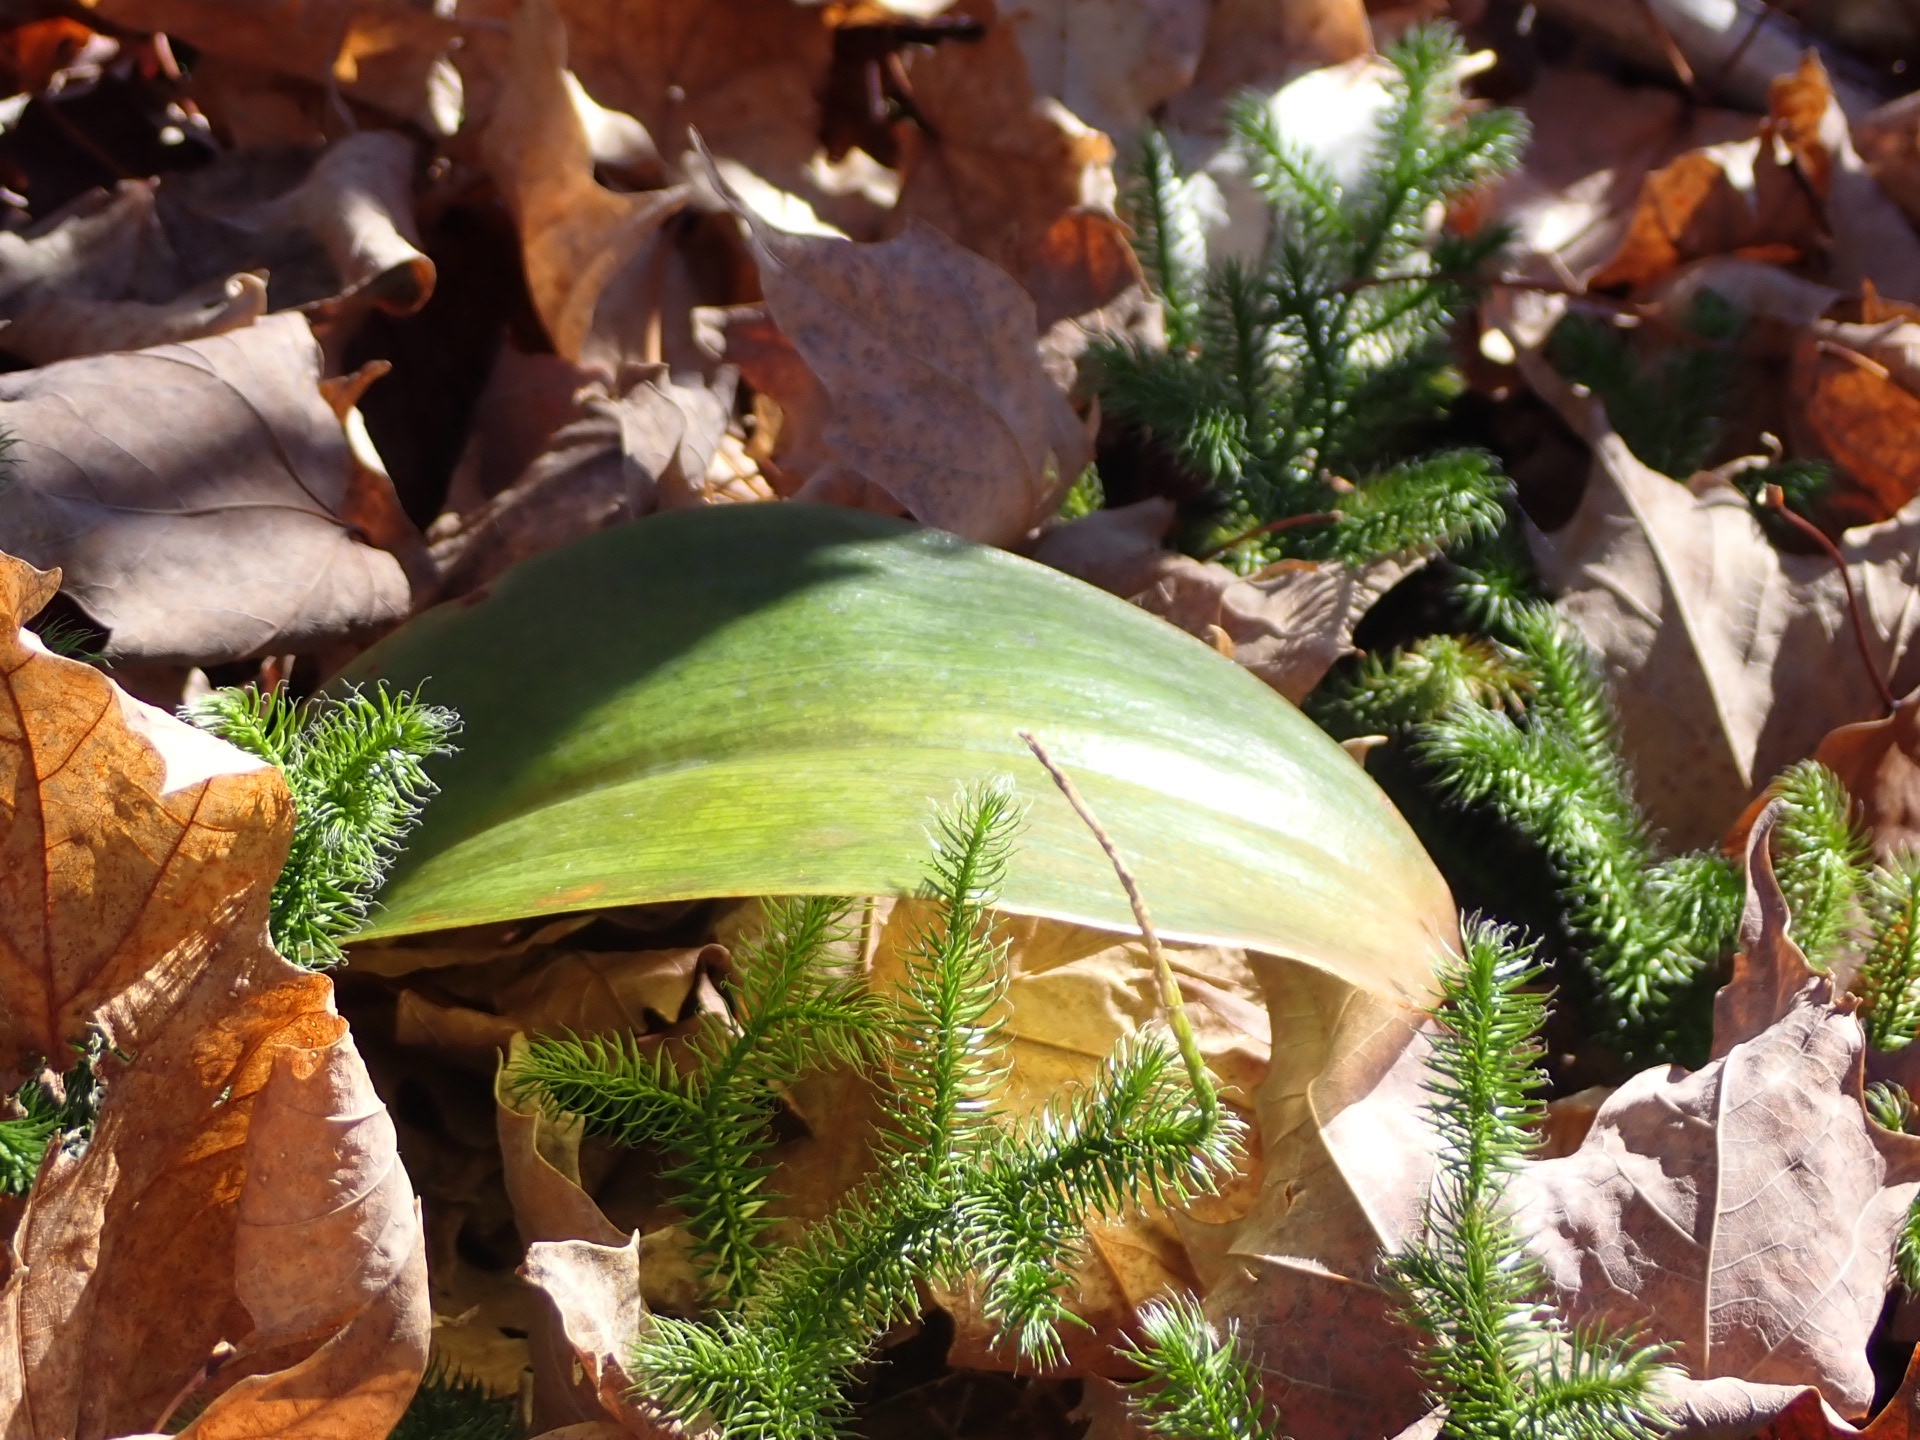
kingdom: Plantae
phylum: Tracheophyta
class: Liliopsida
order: Liliales
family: Liliaceae
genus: Clintonia
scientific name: Clintonia borealis
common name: Yellow clintonia
